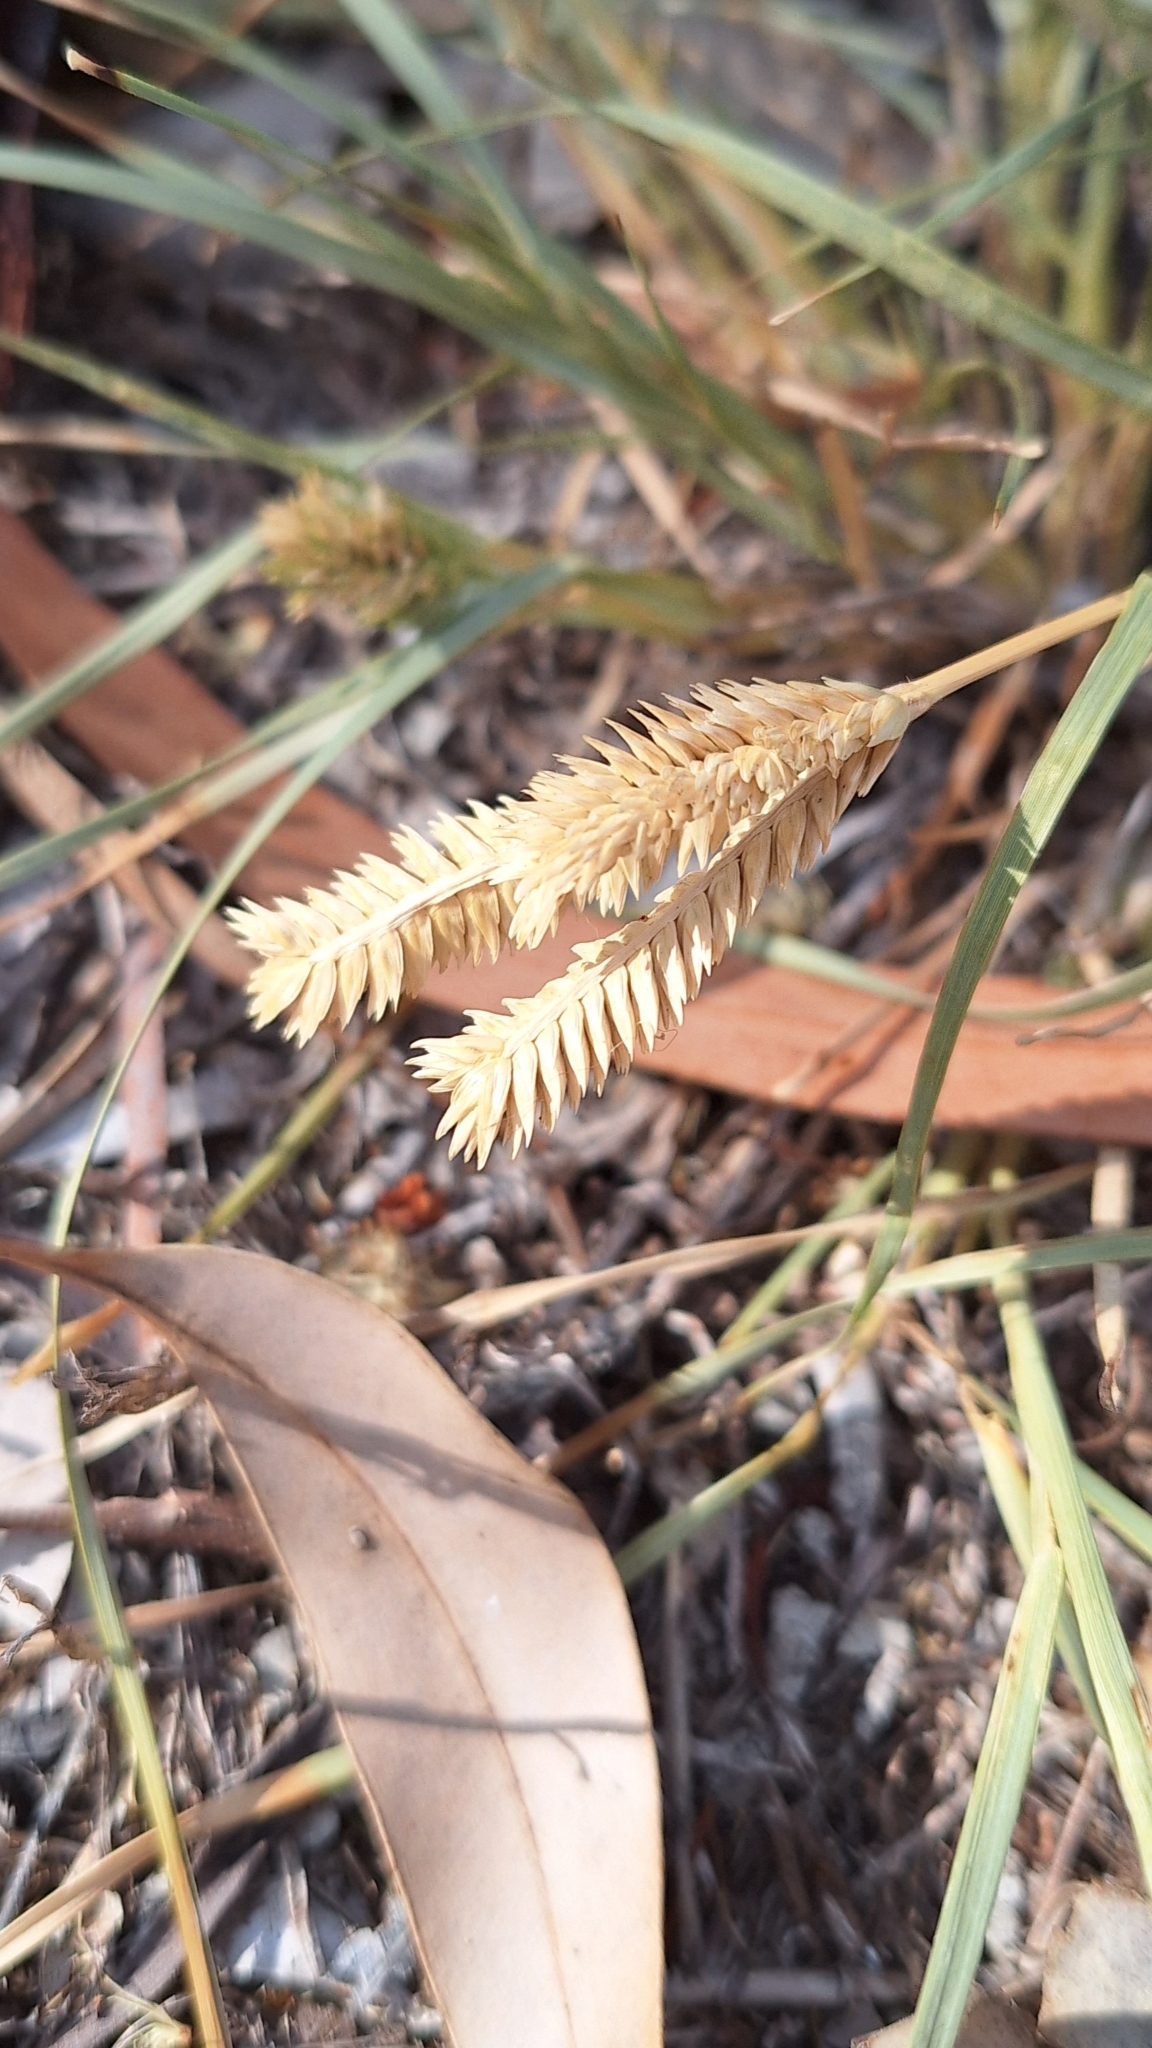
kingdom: Plantae
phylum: Tracheophyta
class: Liliopsida
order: Poales
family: Poaceae
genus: Eleusine
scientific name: Eleusine tristachya
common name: American yard-grass
